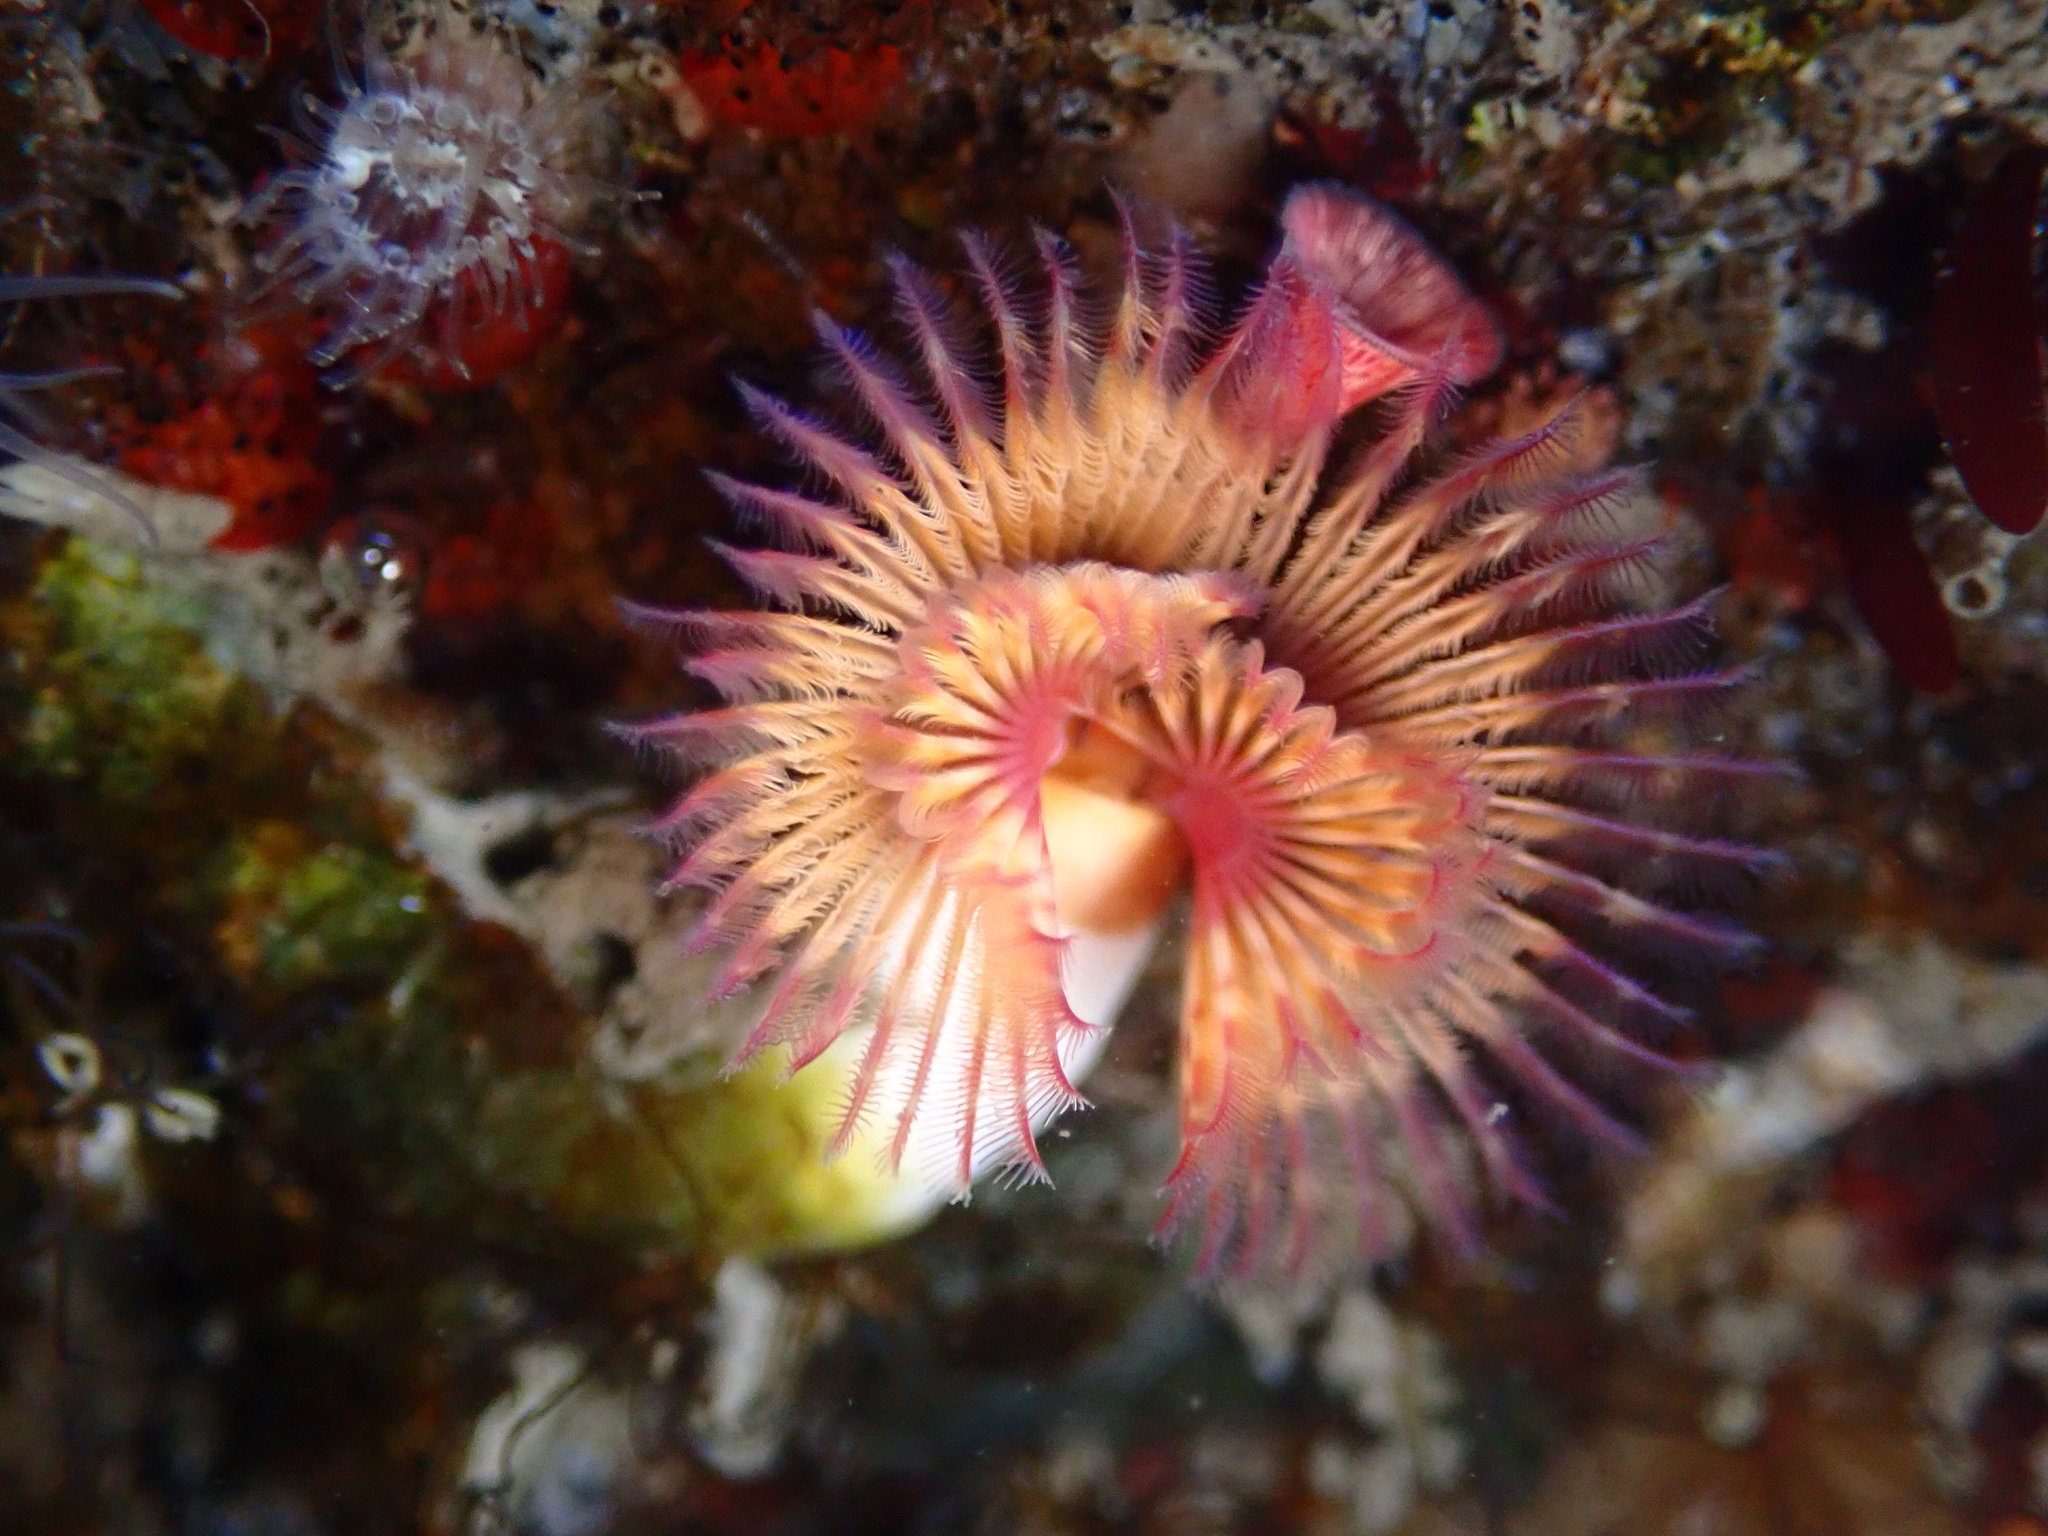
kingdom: Animalia
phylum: Annelida
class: Polychaeta
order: Sabellida
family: Serpulidae
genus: Serpula
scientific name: Serpula columbiana
